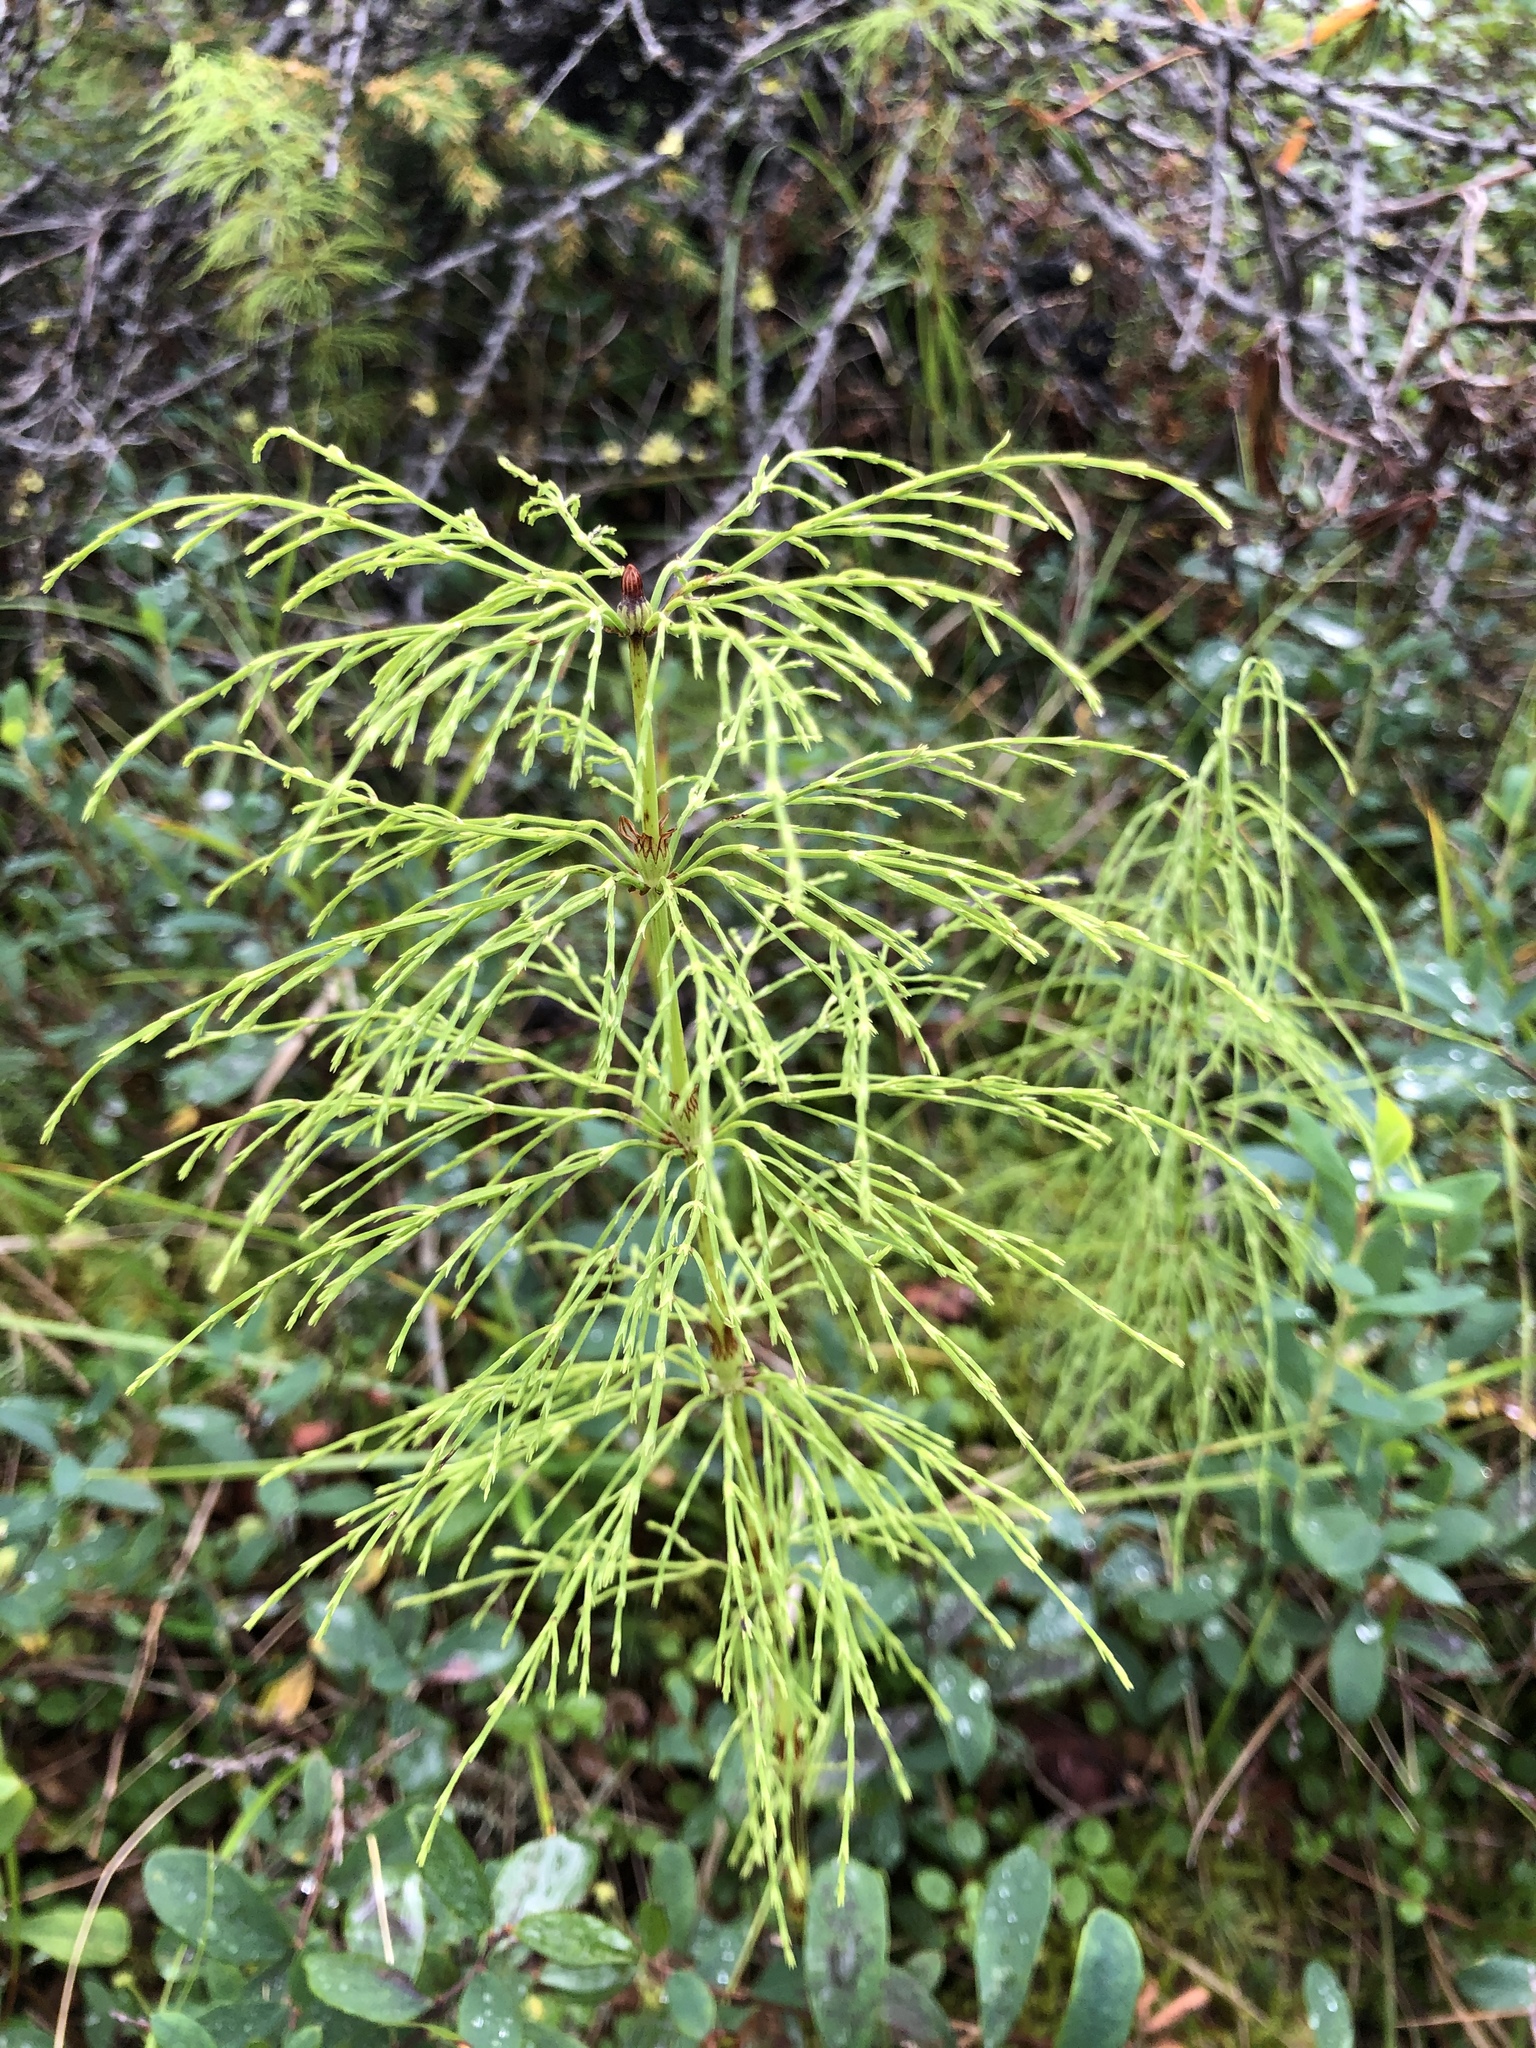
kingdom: Plantae
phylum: Tracheophyta
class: Polypodiopsida
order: Equisetales
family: Equisetaceae
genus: Equisetum
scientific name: Equisetum sylvaticum
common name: Wood horsetail
